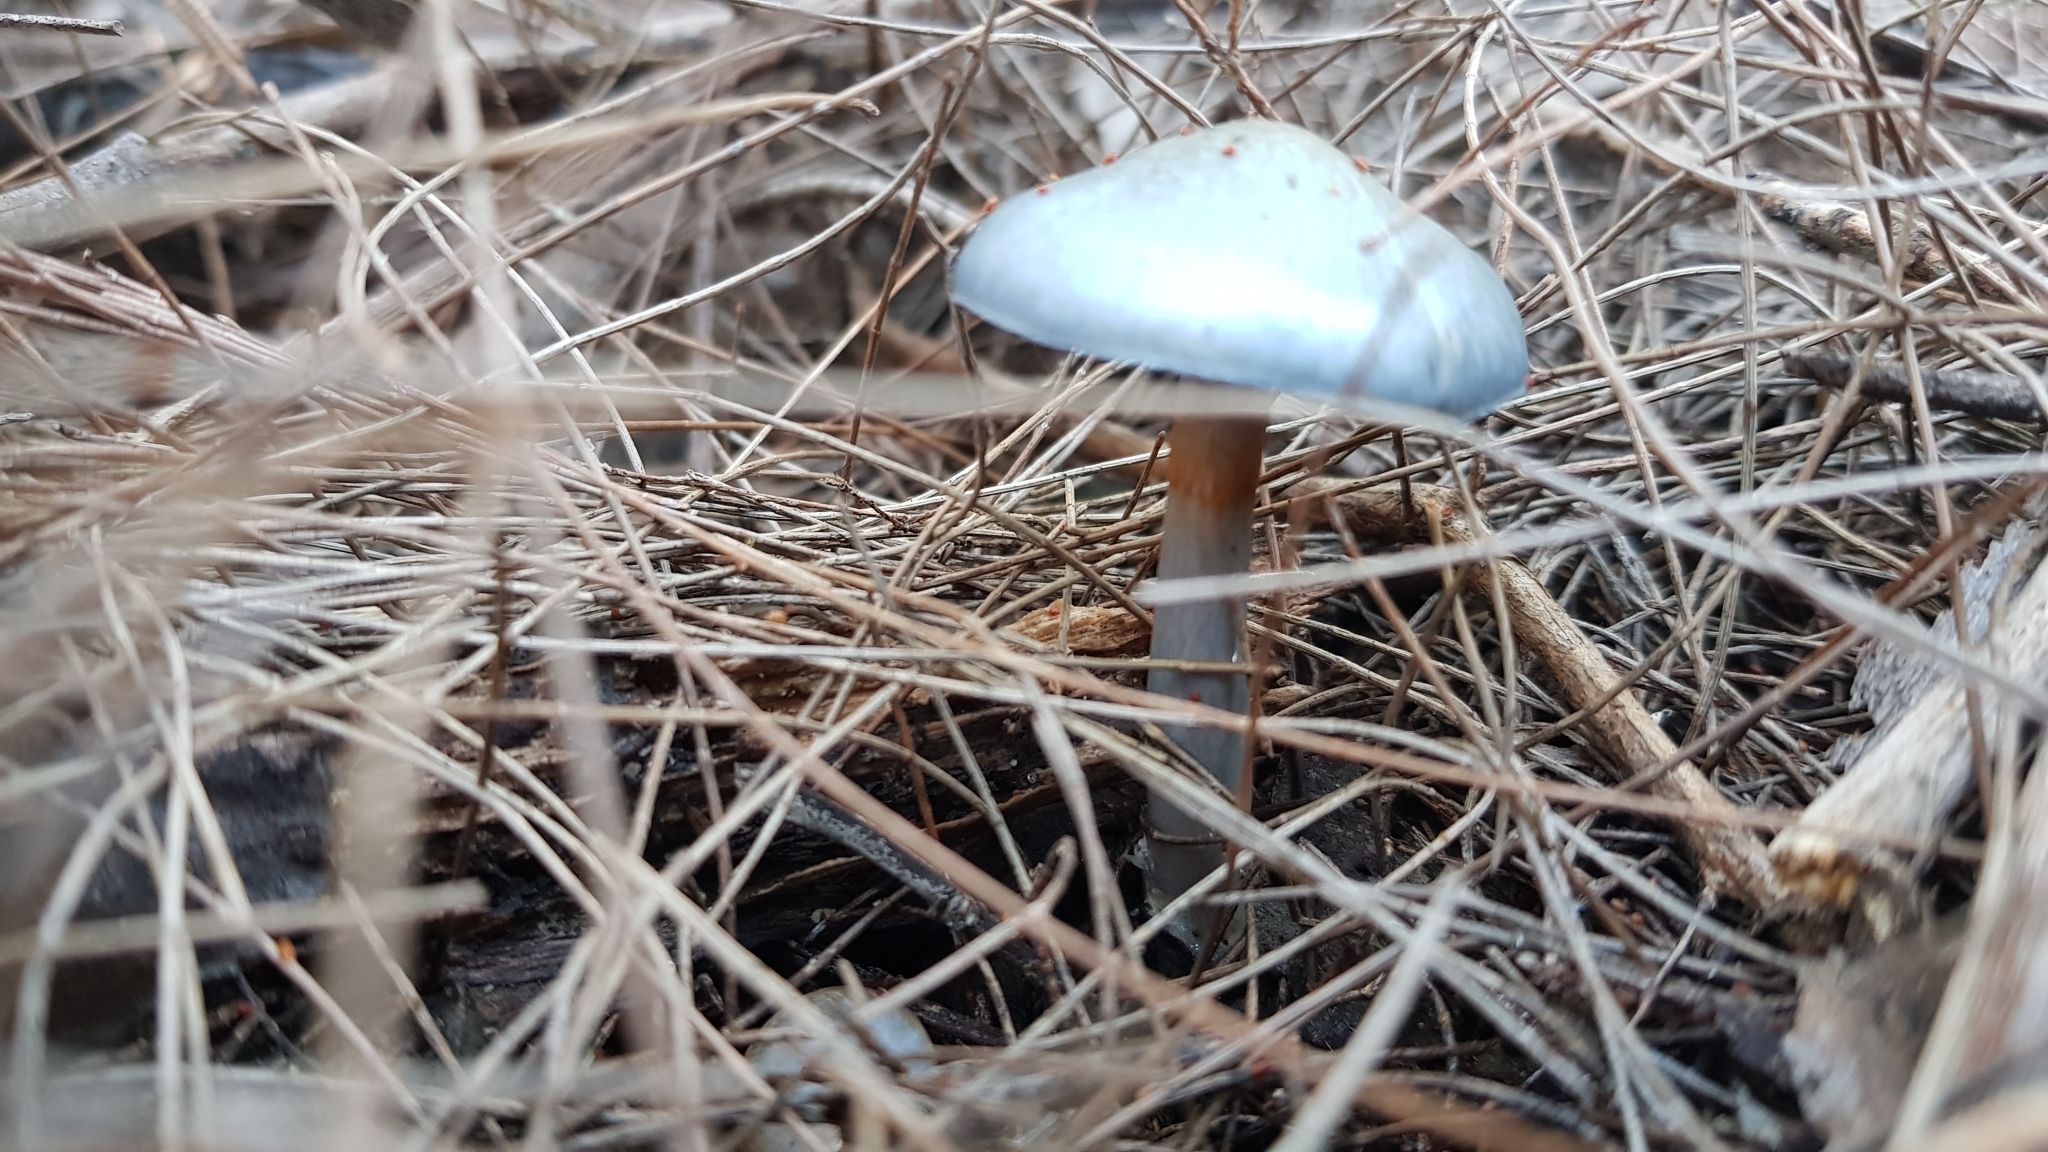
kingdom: Fungi
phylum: Basidiomycota
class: Agaricomycetes
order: Agaricales
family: Cortinariaceae
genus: Cortinarius
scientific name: Cortinarius rotundisporus
